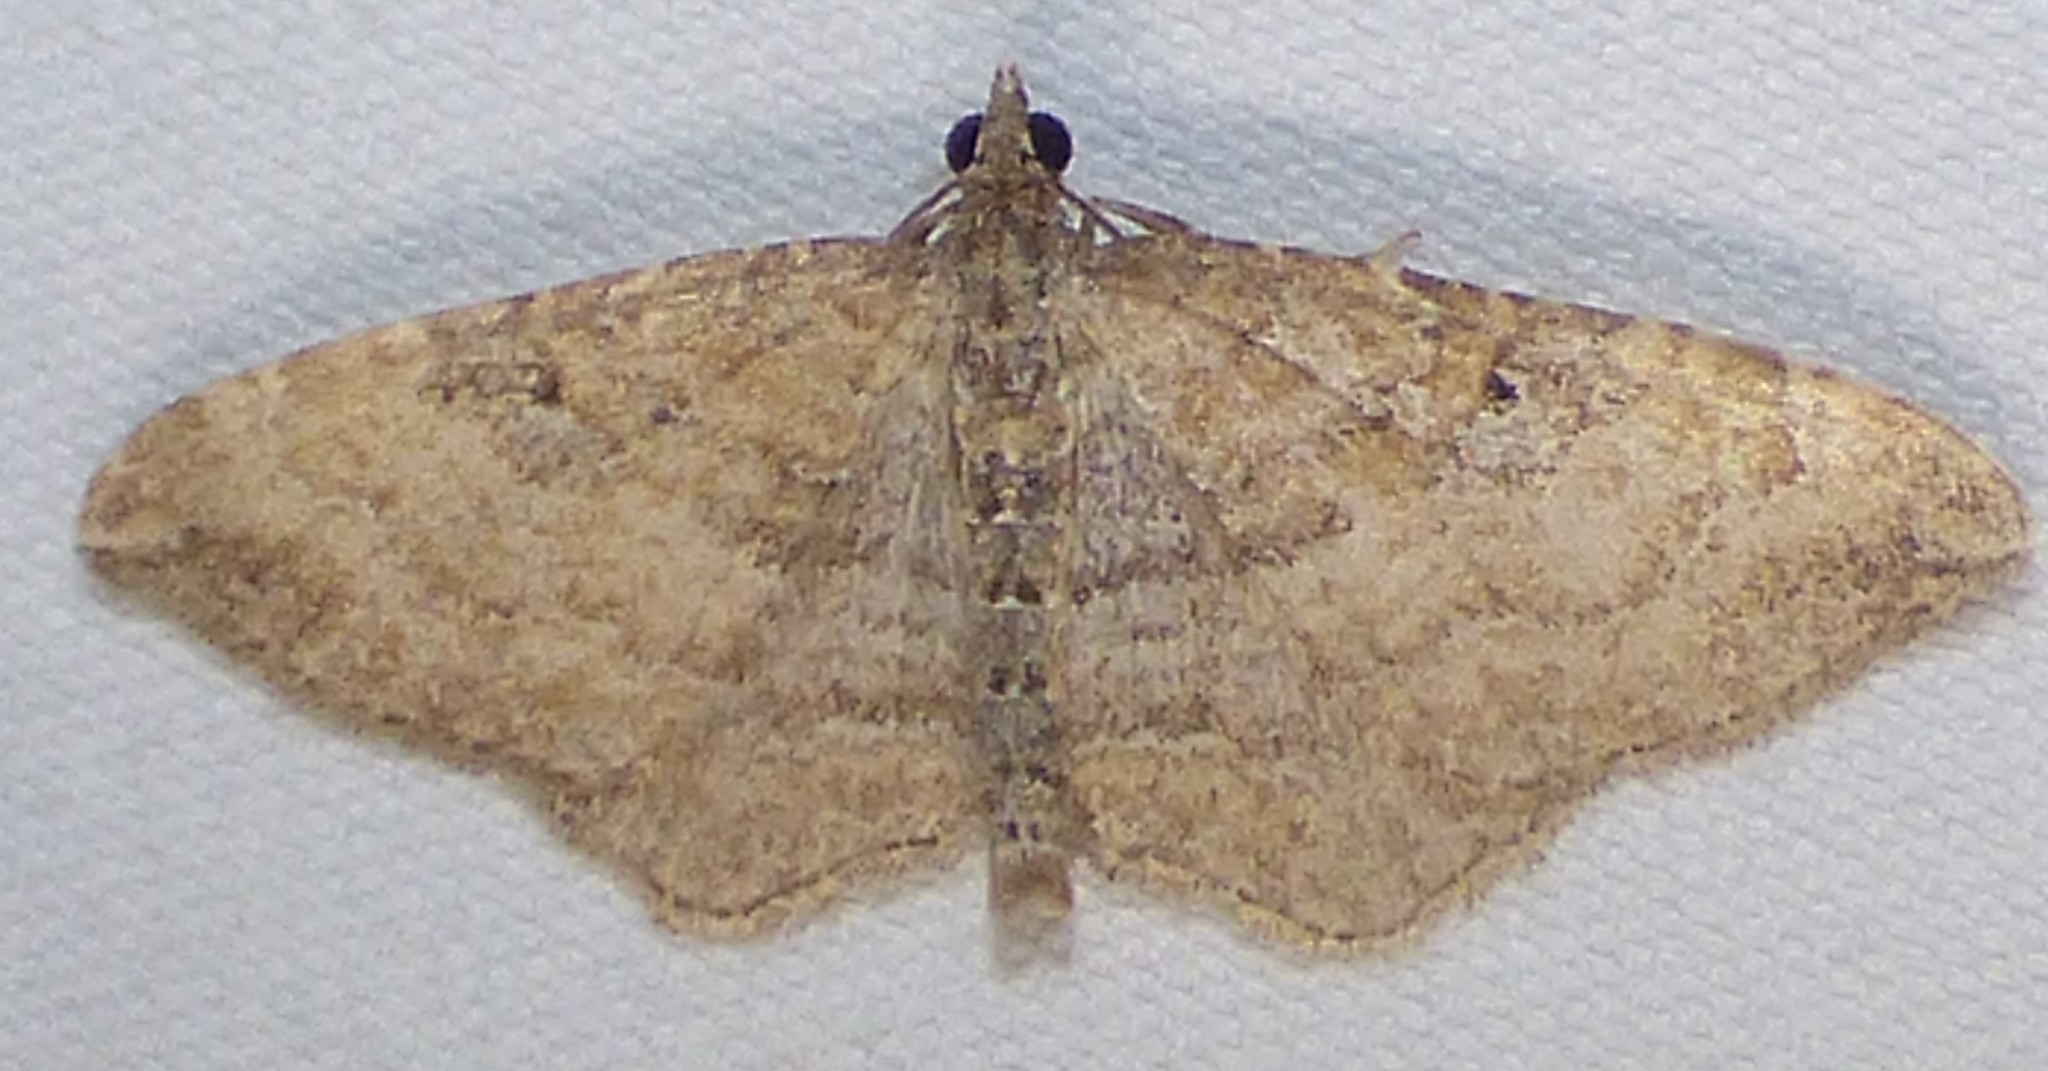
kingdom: Animalia
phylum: Arthropoda
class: Insecta
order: Lepidoptera
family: Geometridae
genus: Orthonama
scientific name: Orthonama obstipata
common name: The gem
